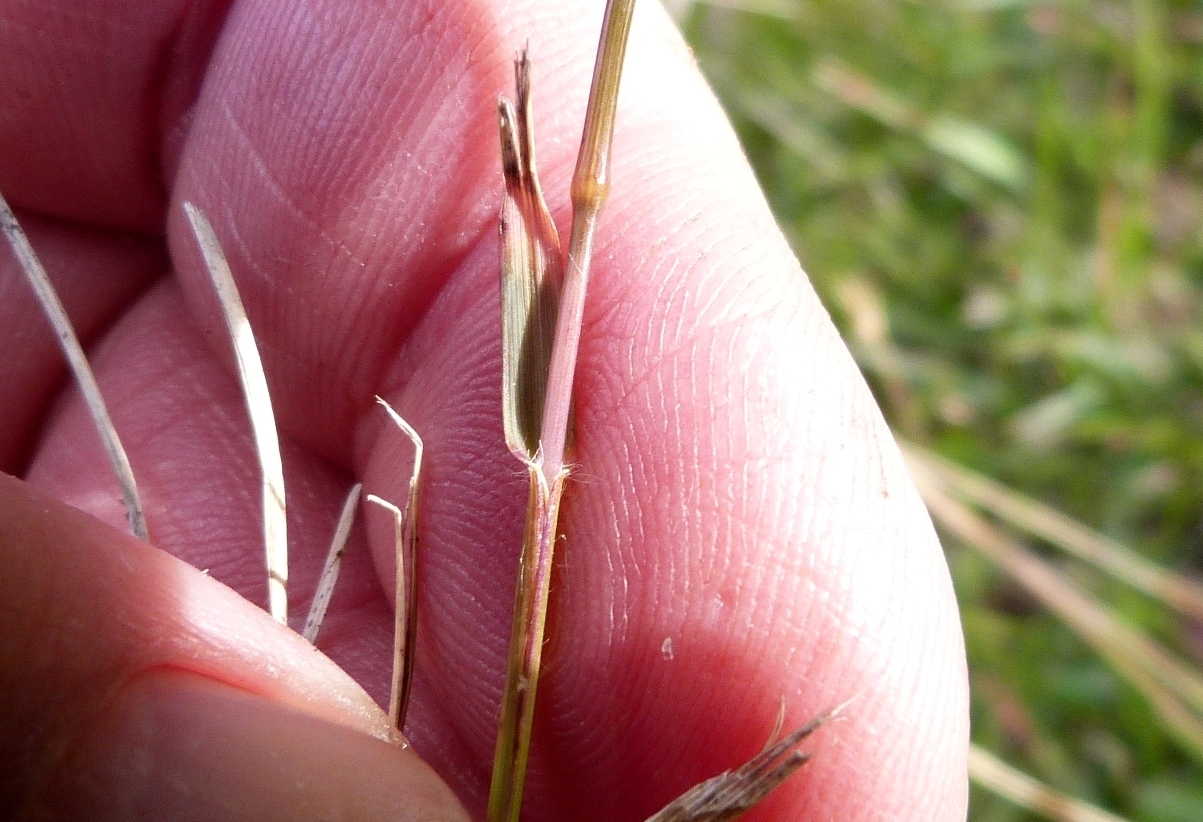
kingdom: Plantae
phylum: Tracheophyta
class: Liliopsida
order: Poales
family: Poaceae
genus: Danthonia
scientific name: Danthonia decumbens
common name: Common heathgrass
